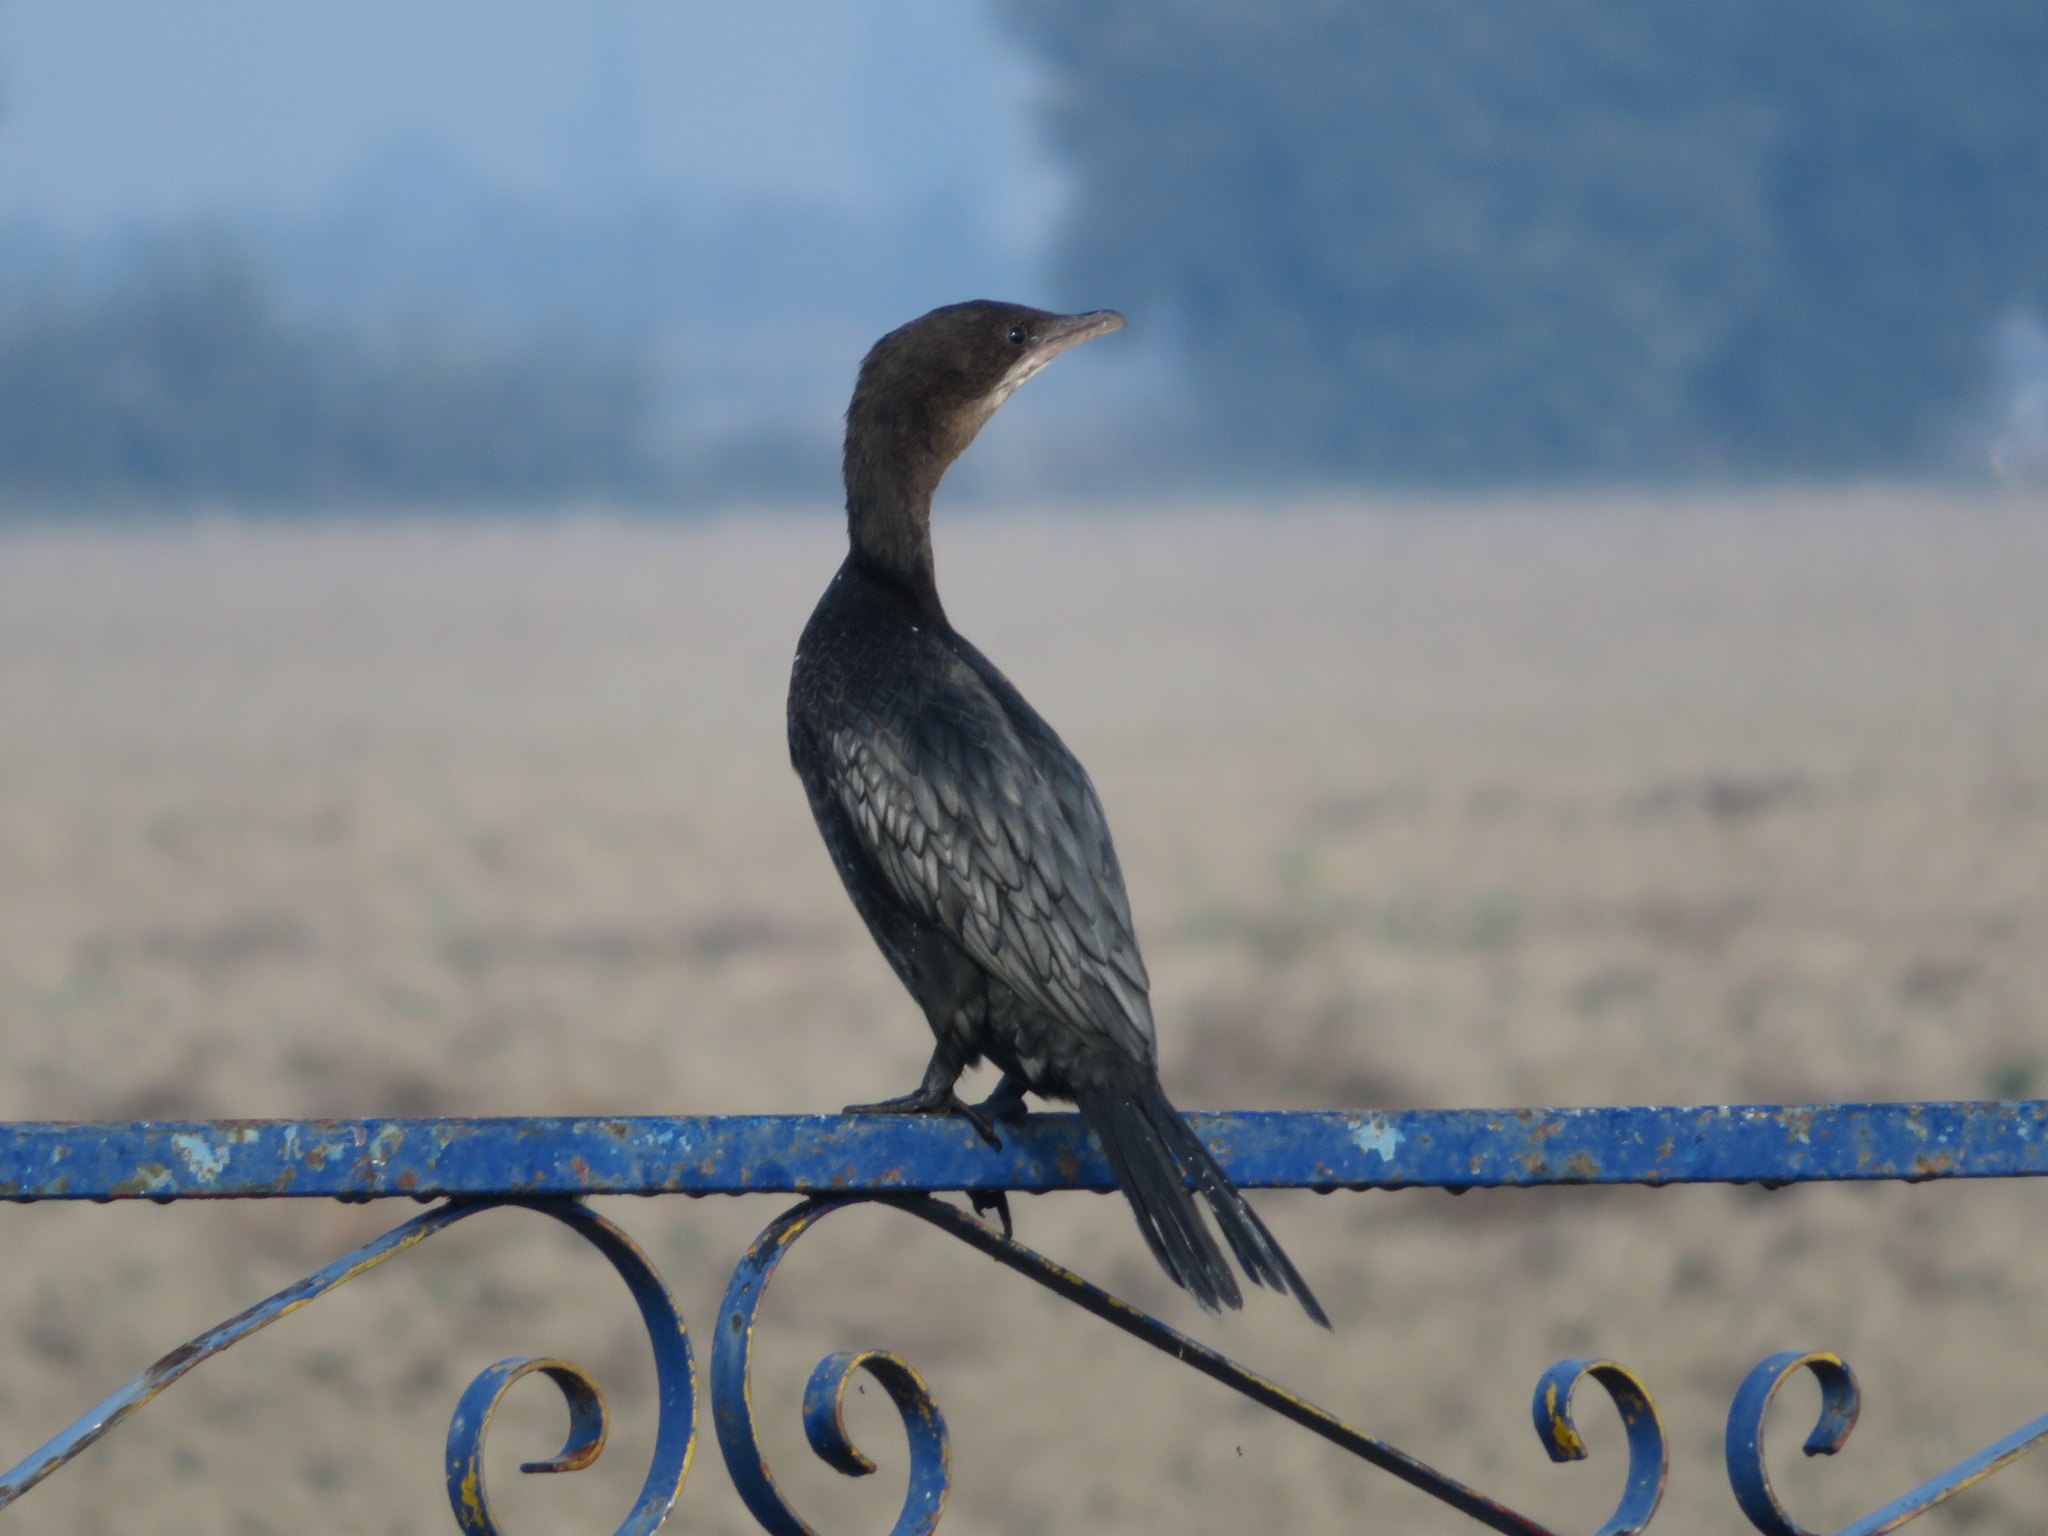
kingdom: Animalia
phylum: Chordata
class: Aves
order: Suliformes
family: Phalacrocoracidae
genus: Microcarbo
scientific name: Microcarbo pygmaeus
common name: Pygmy cormorant
